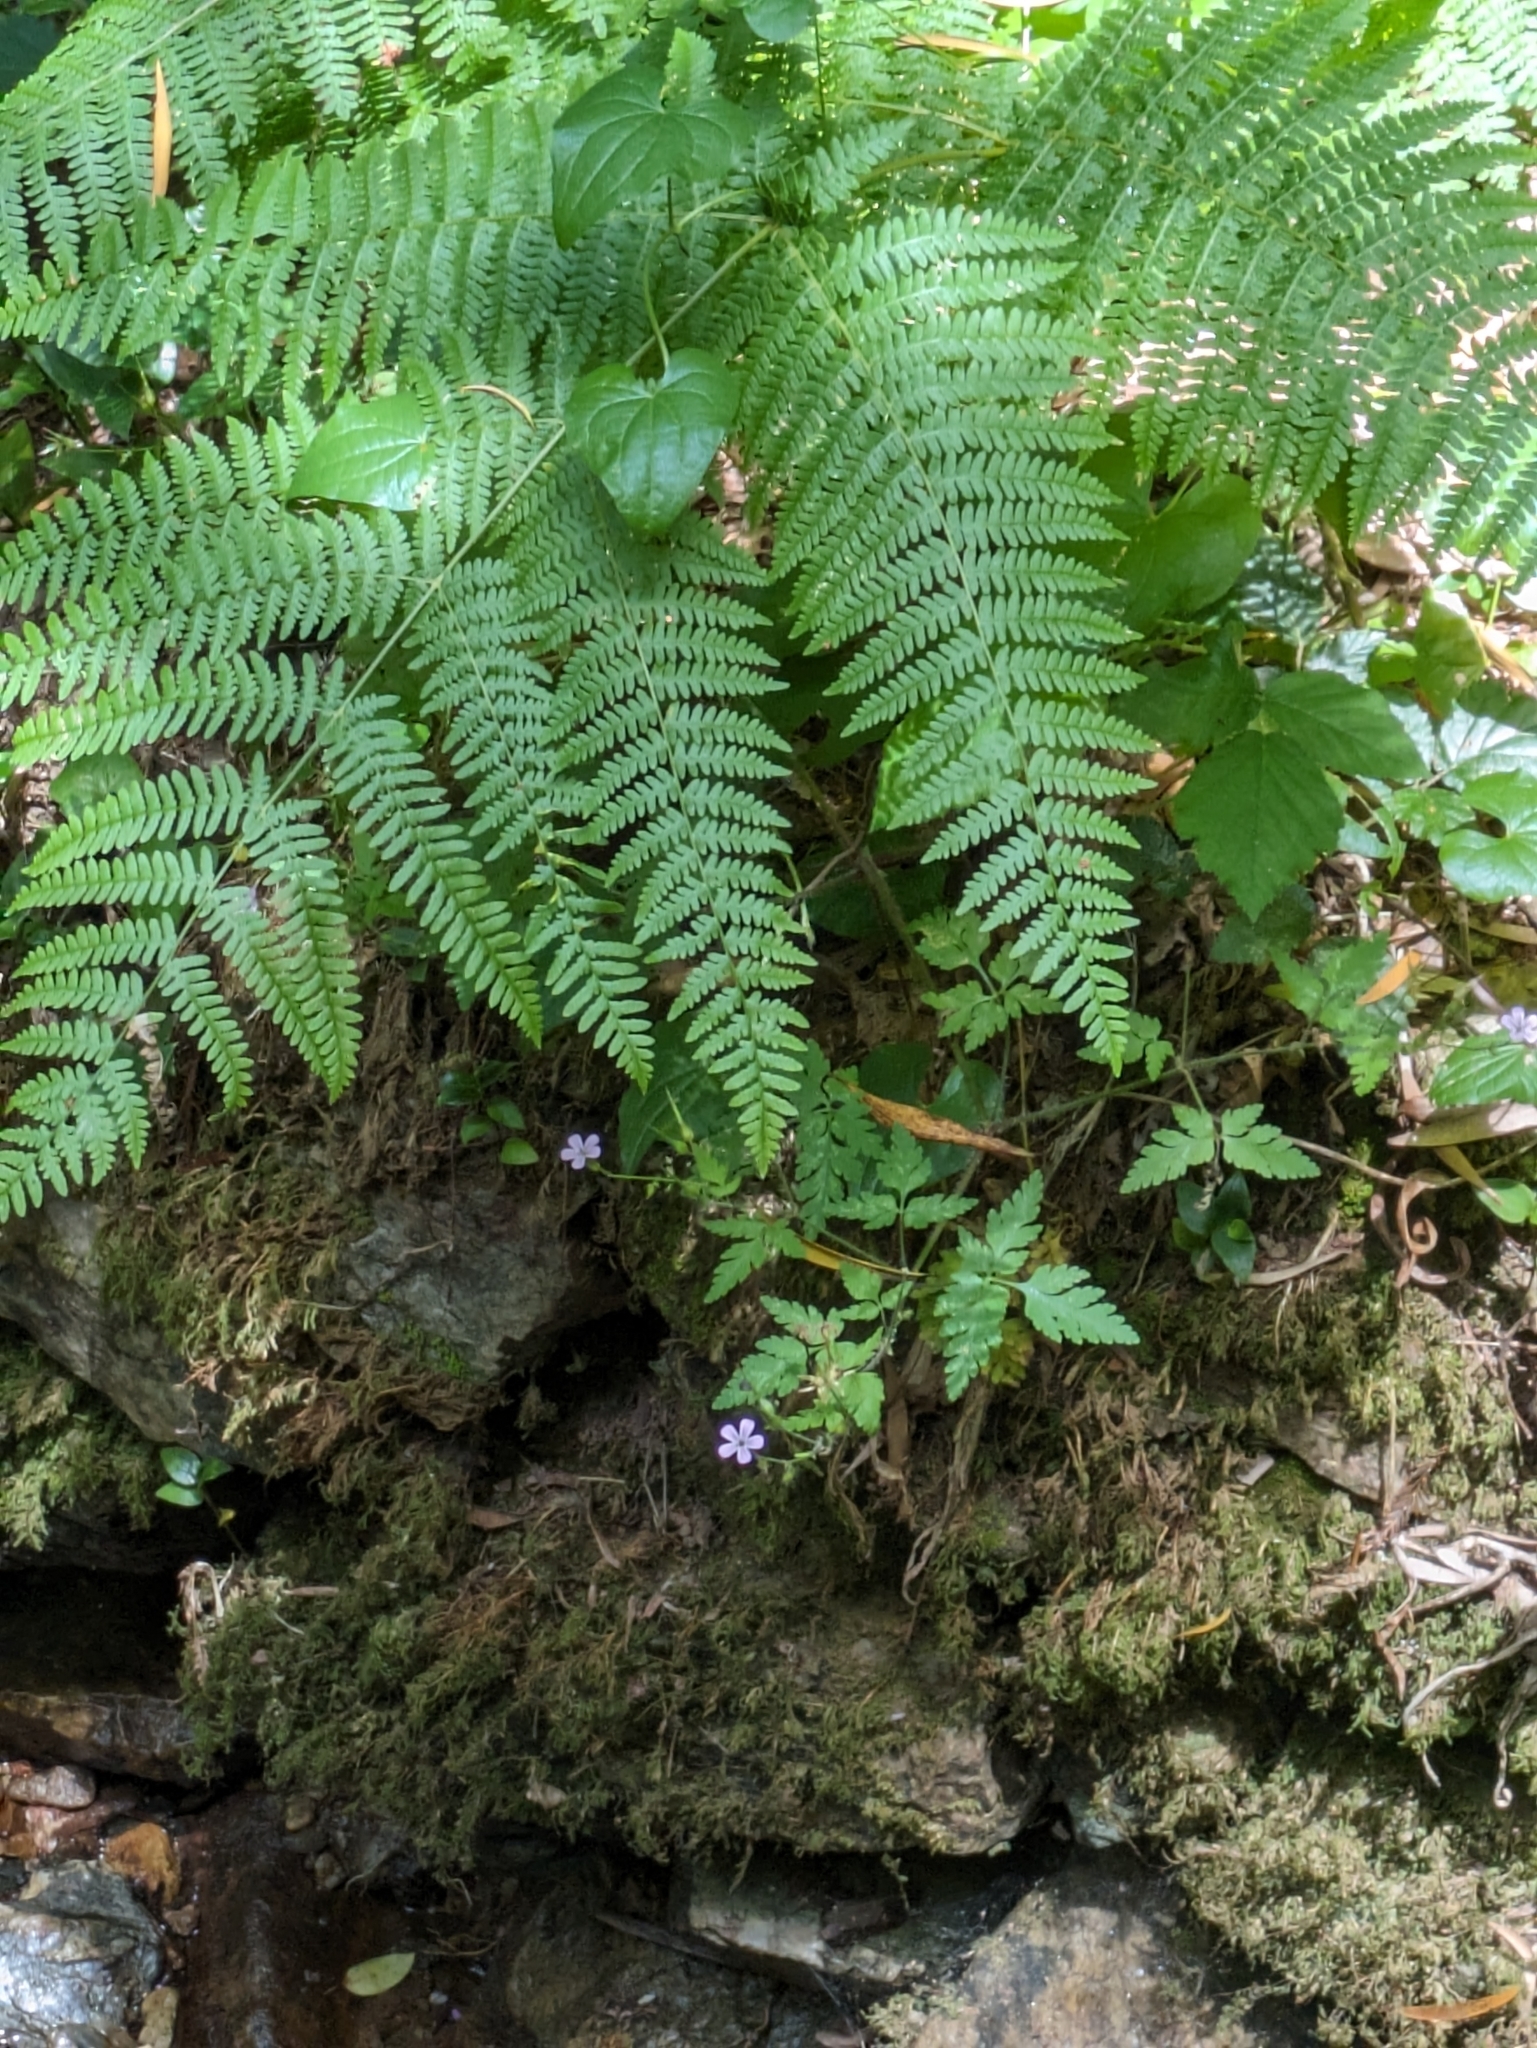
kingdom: Plantae
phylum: Tracheophyta
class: Polypodiopsida
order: Polypodiales
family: Dennstaedtiaceae
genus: Pteridium
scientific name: Pteridium aquilinum
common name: Bracken
